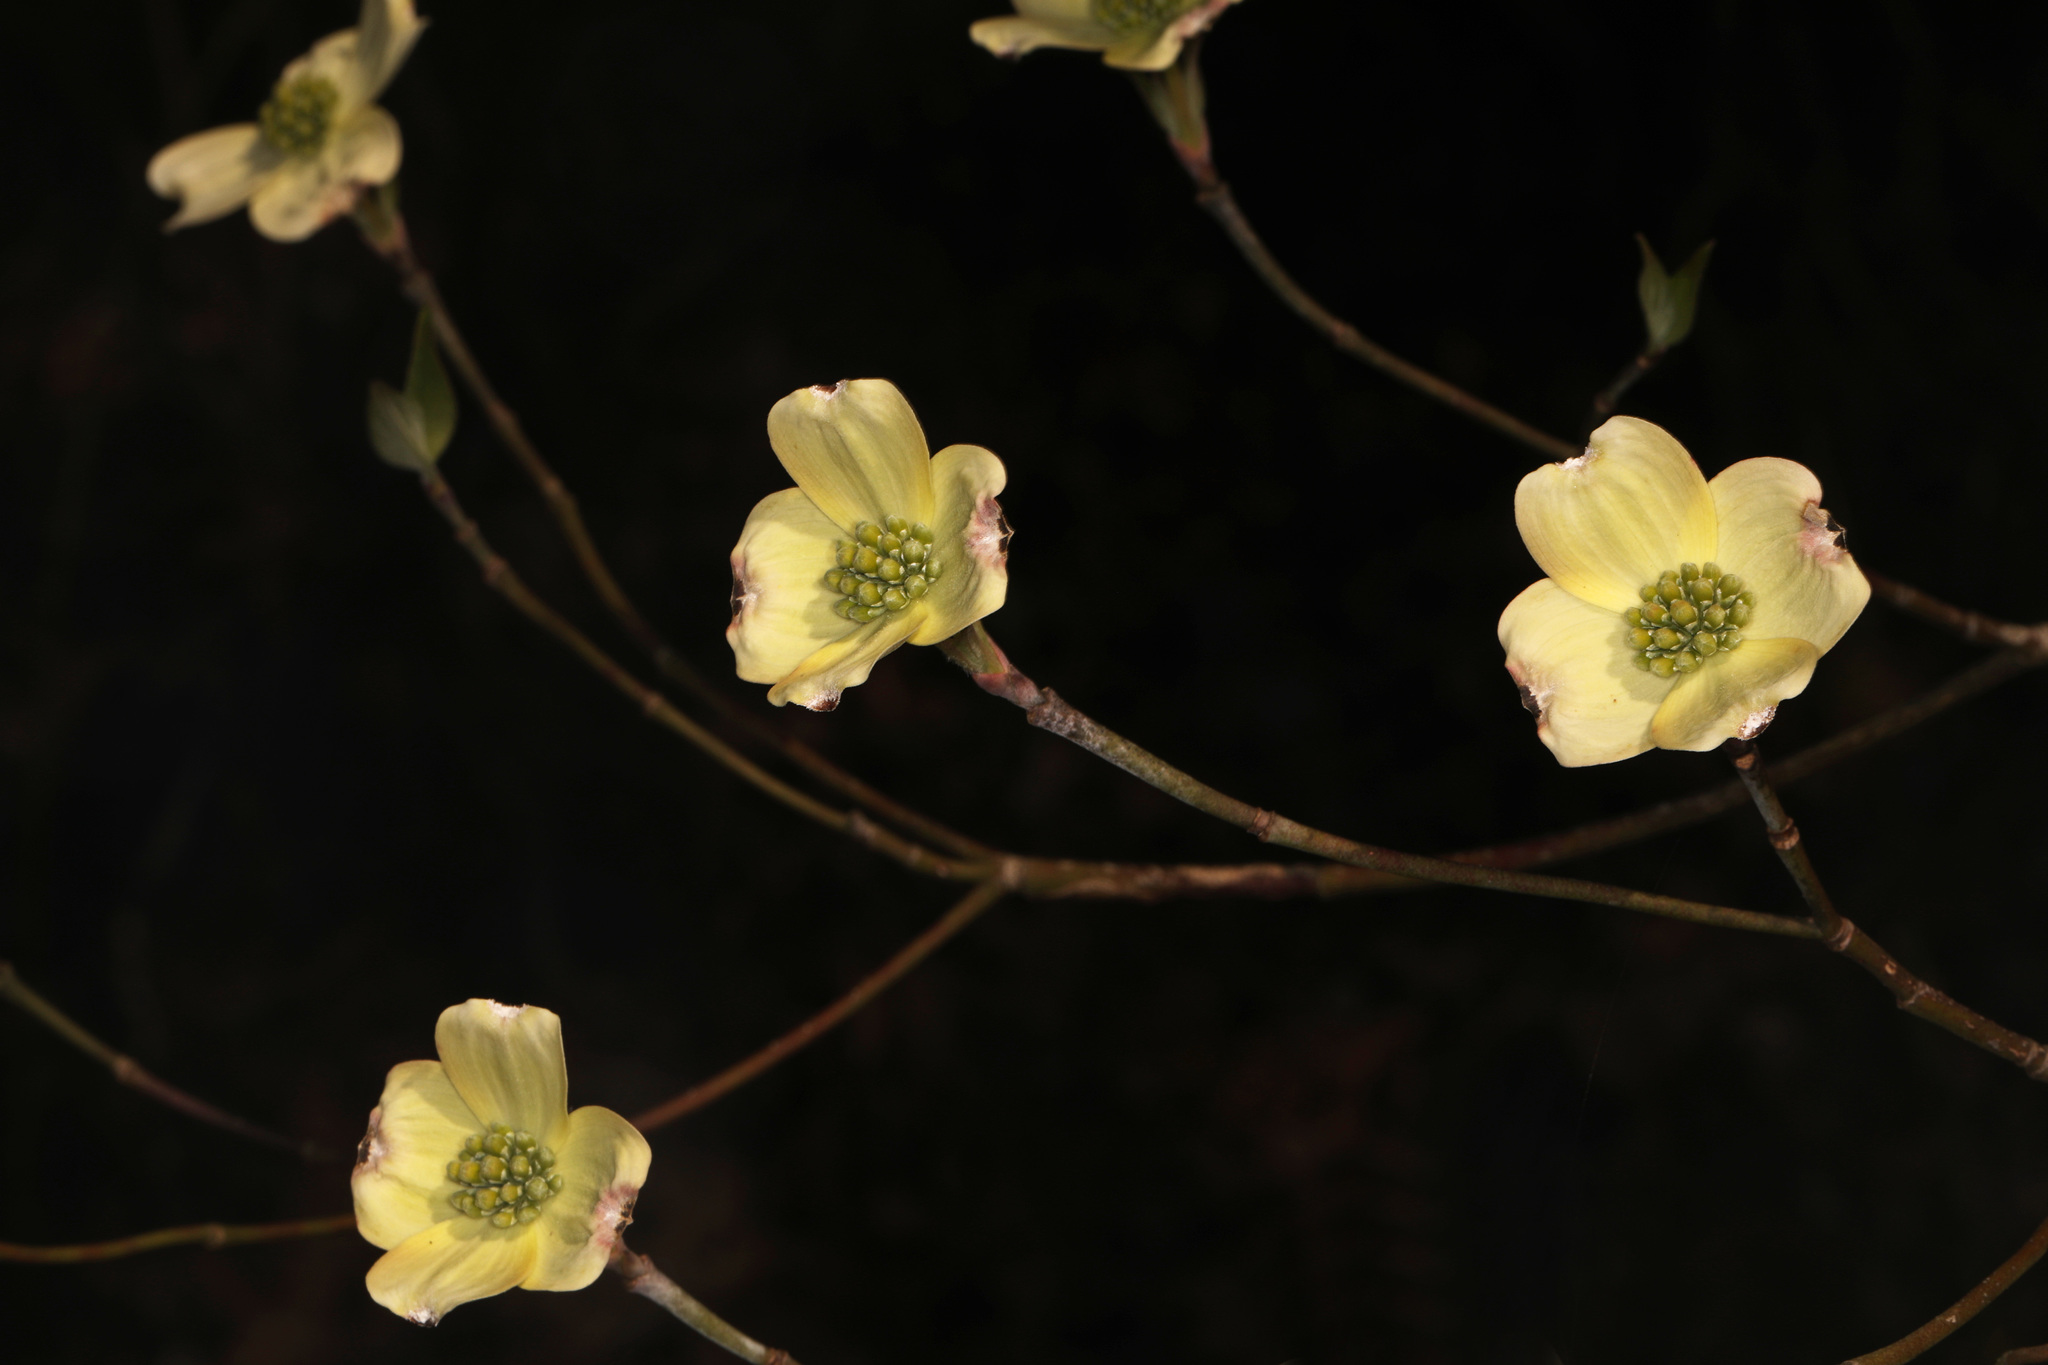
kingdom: Plantae
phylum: Tracheophyta
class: Magnoliopsida
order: Cornales
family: Cornaceae
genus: Cornus
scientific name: Cornus florida
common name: Flowering dogwood
